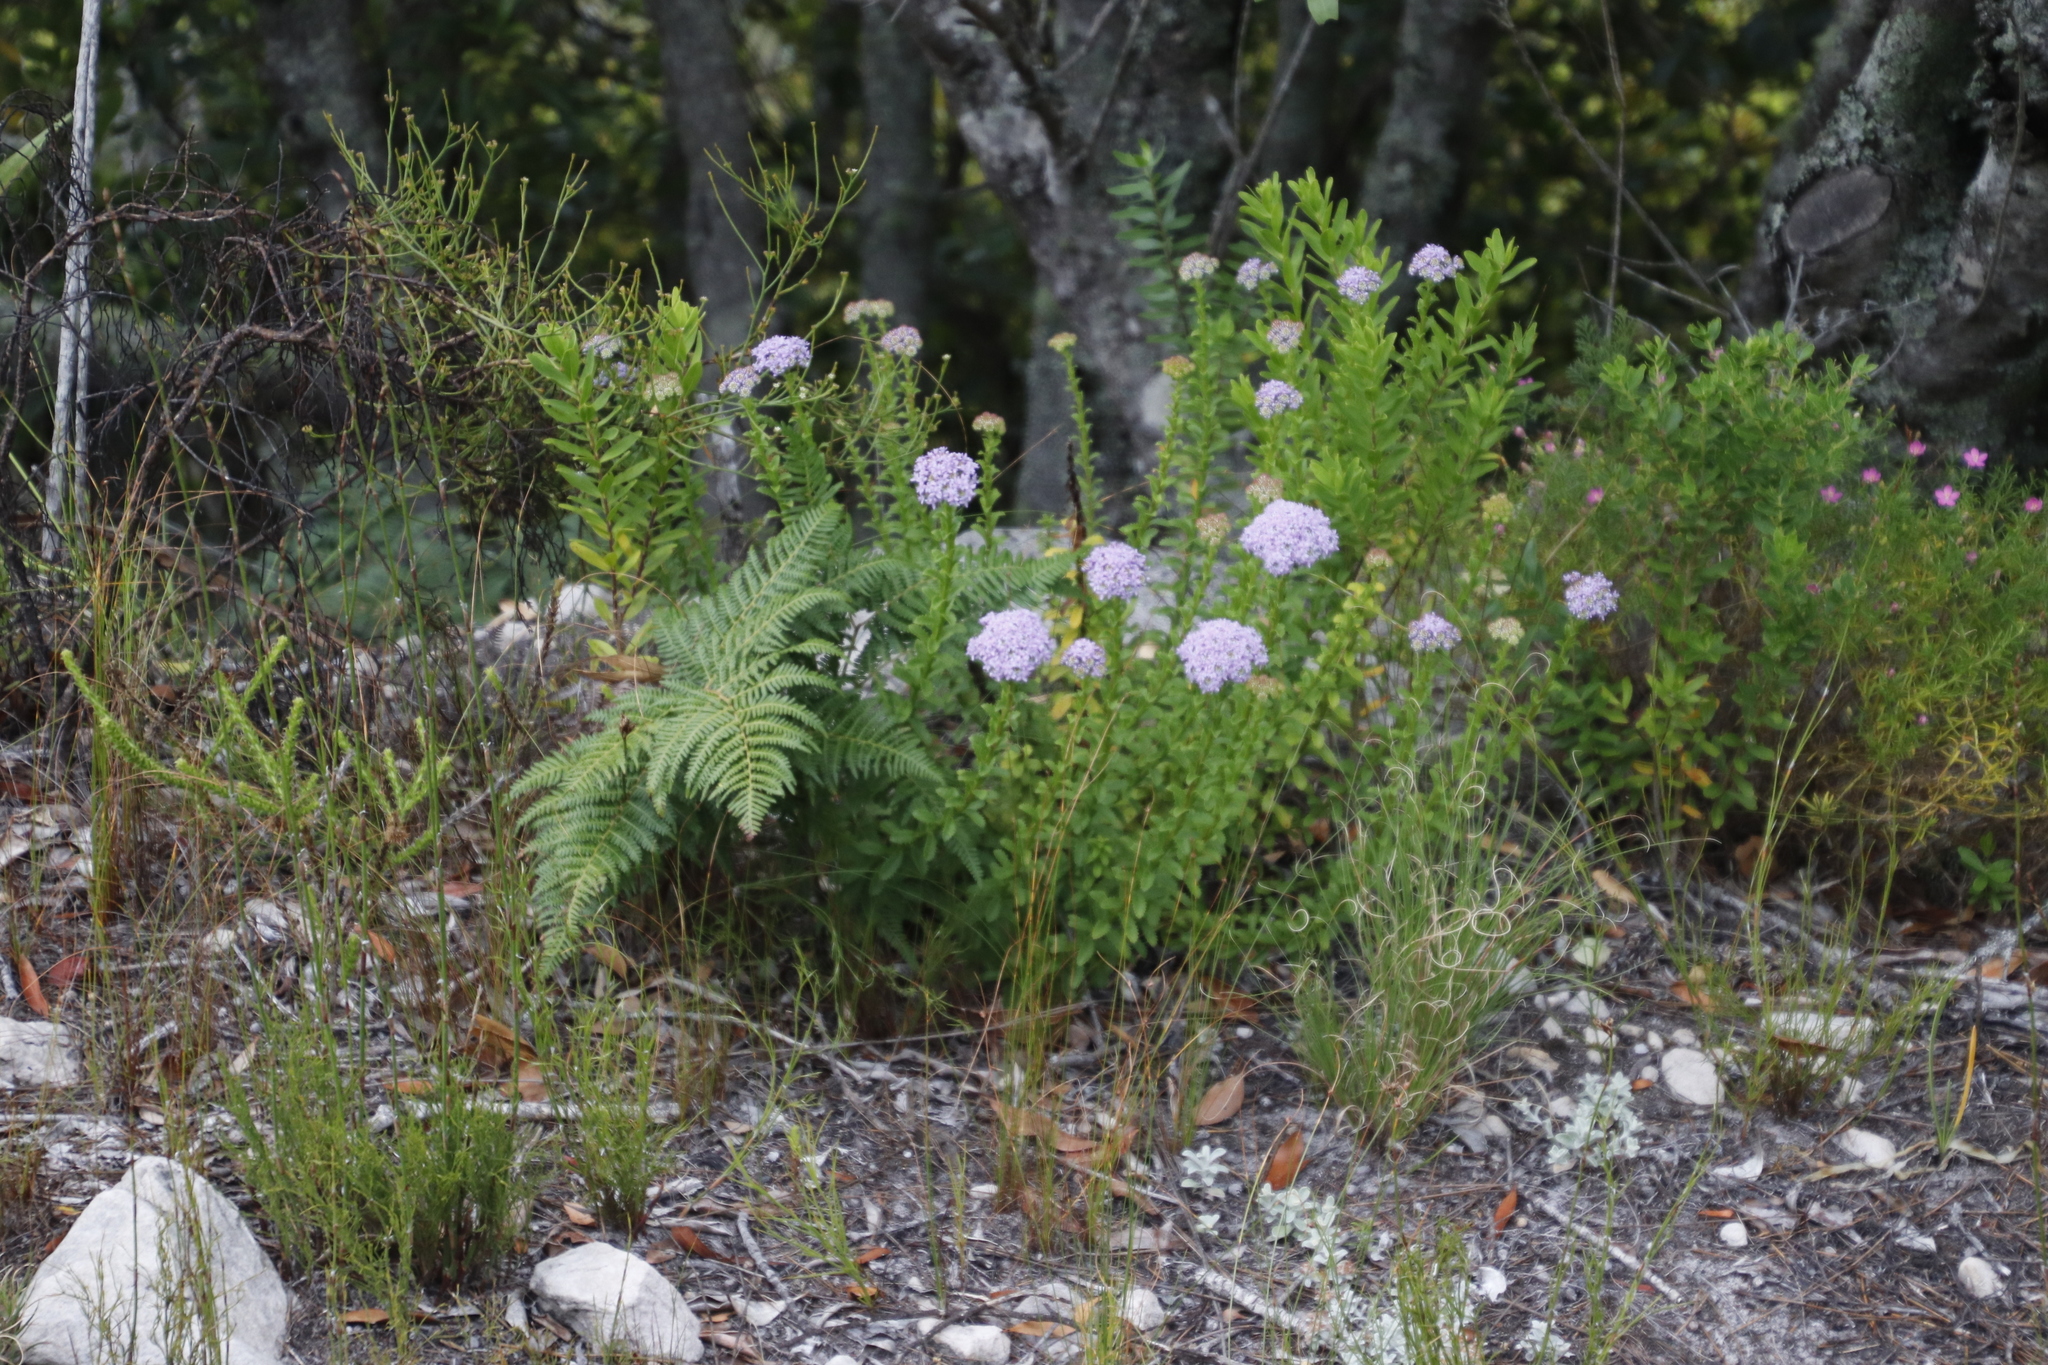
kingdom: Plantae
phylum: Tracheophyta
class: Magnoliopsida
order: Lamiales
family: Scrophulariaceae
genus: Pseudoselago
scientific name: Pseudoselago serrata
